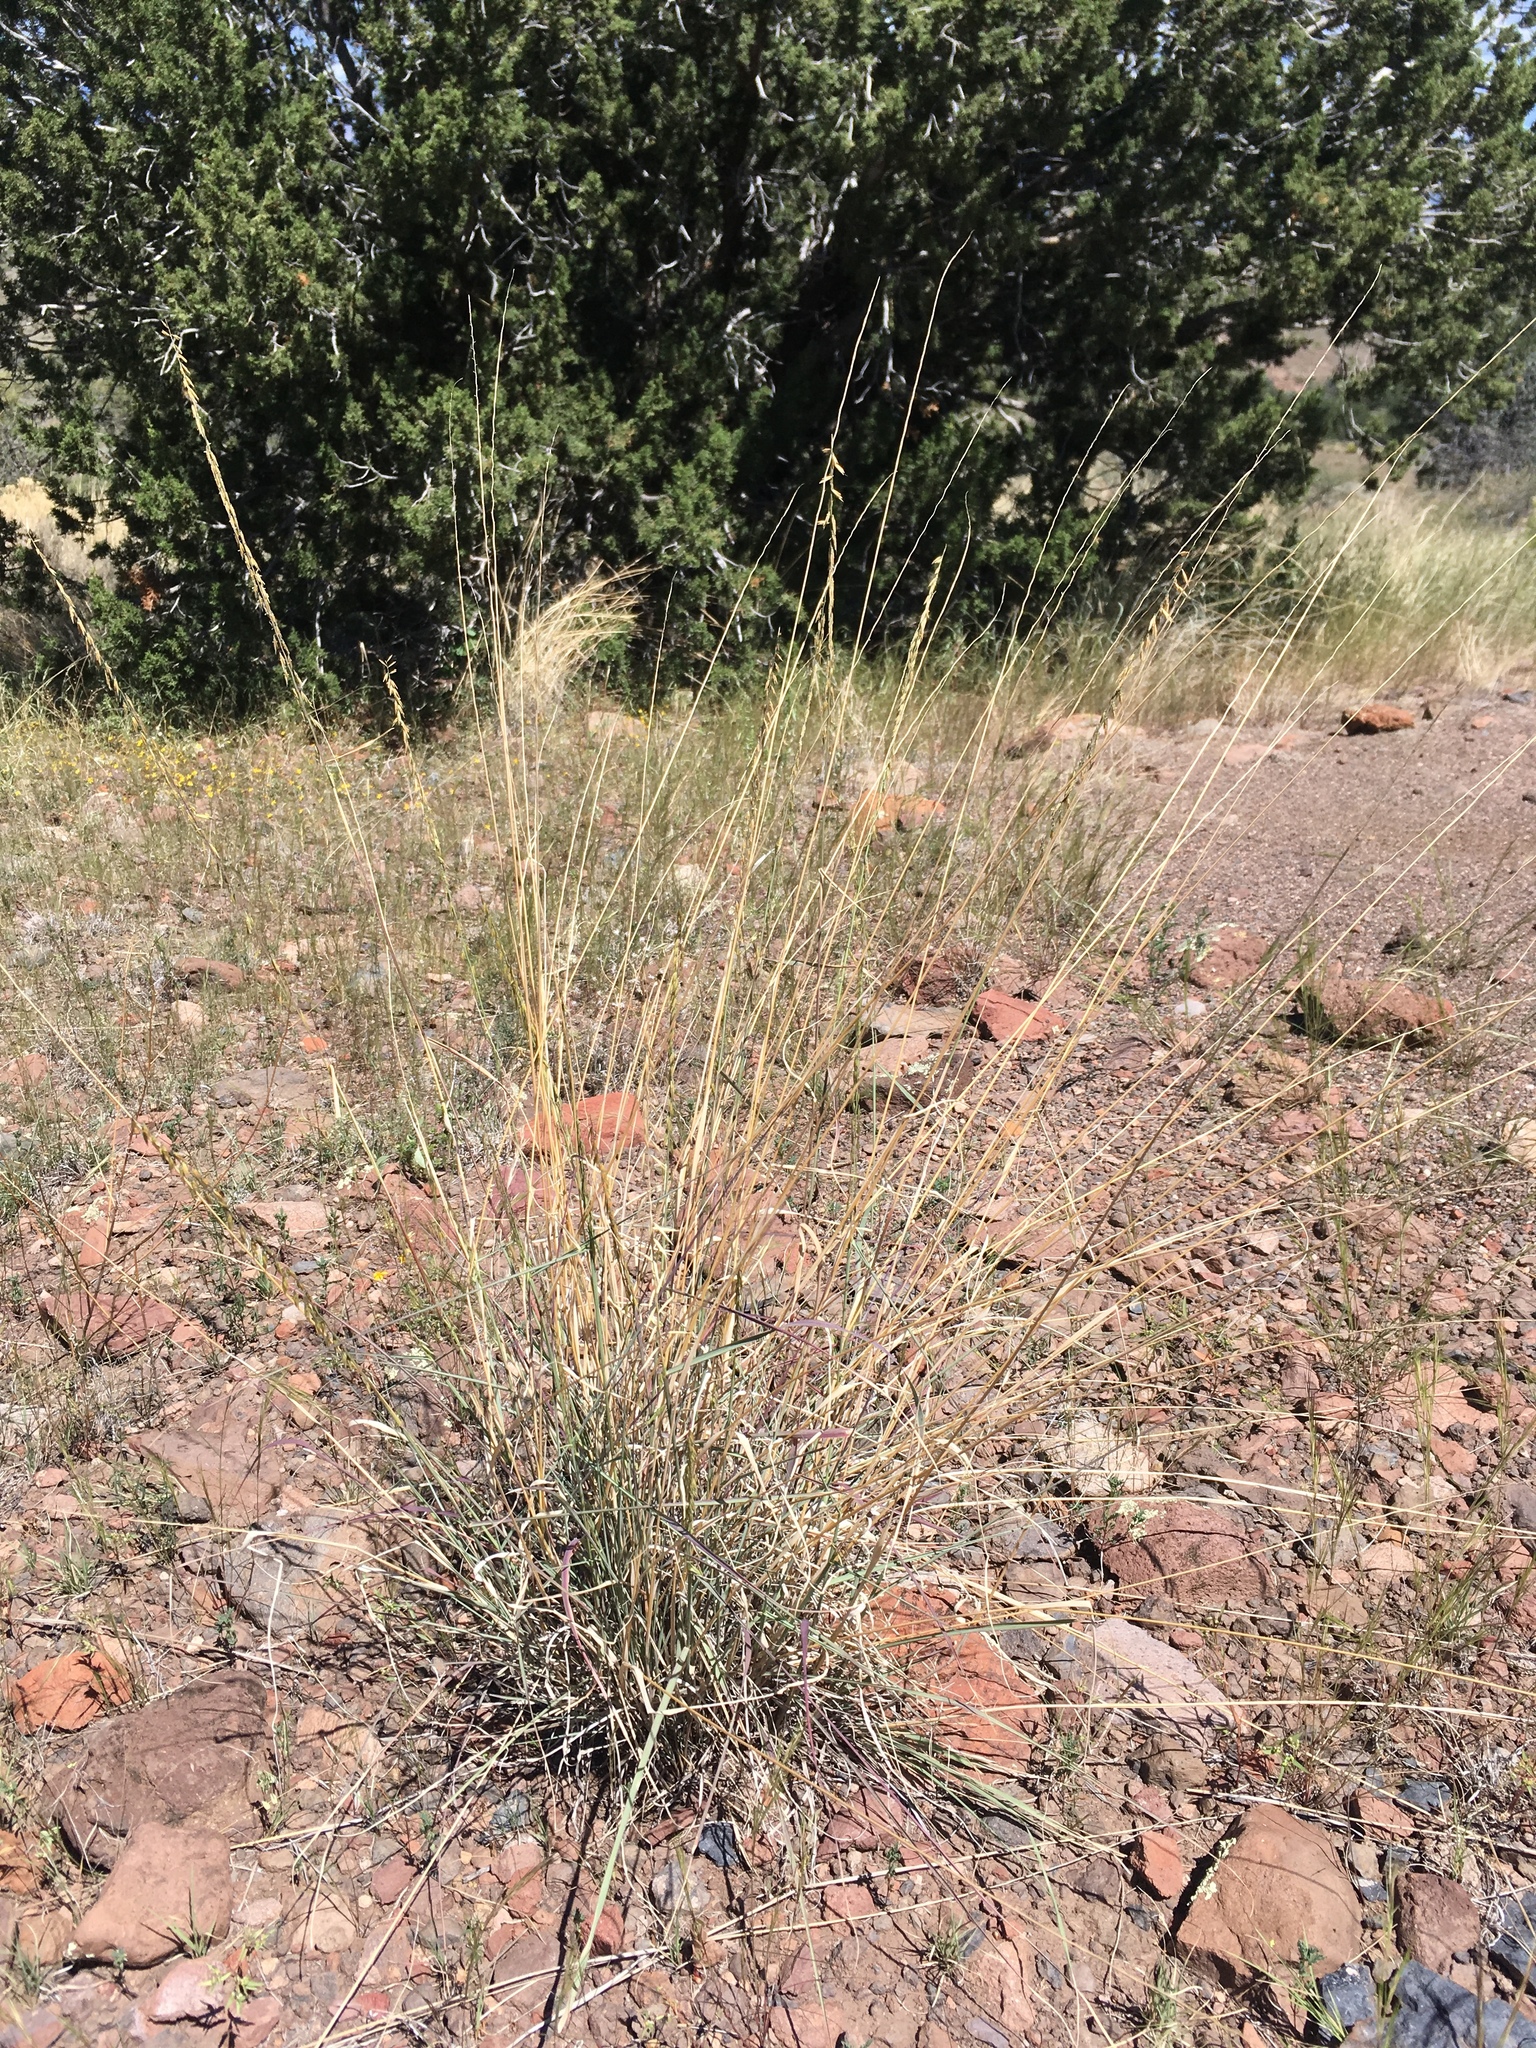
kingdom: Plantae
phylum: Tracheophyta
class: Liliopsida
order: Poales
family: Poaceae
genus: Bouteloua
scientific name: Bouteloua curtipendula
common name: Side-oats grama
